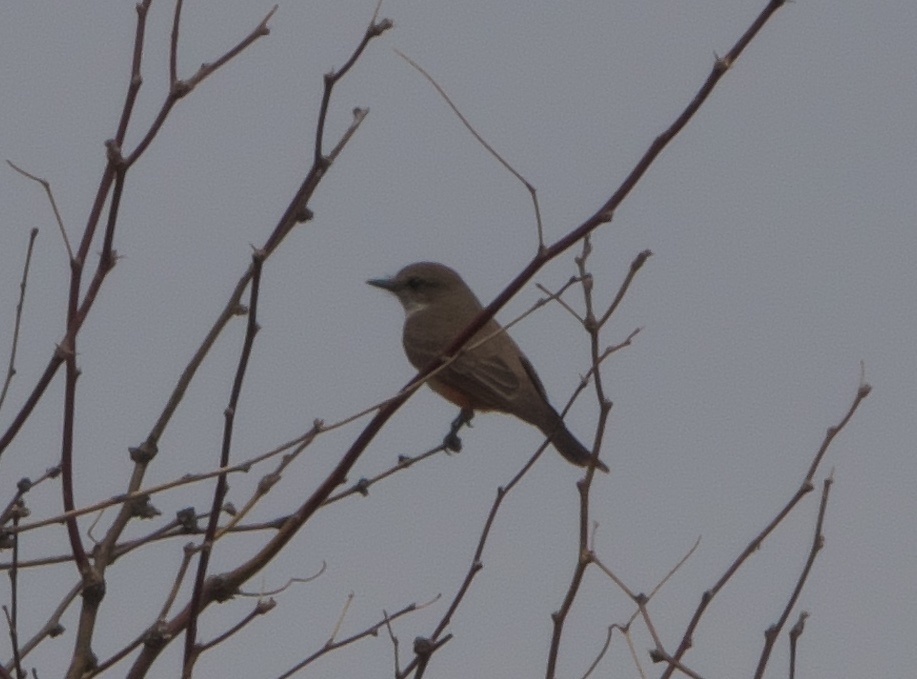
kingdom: Animalia
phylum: Chordata
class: Aves
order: Passeriformes
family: Tyrannidae
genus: Pyrocephalus
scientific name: Pyrocephalus rubinus
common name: Vermilion flycatcher
